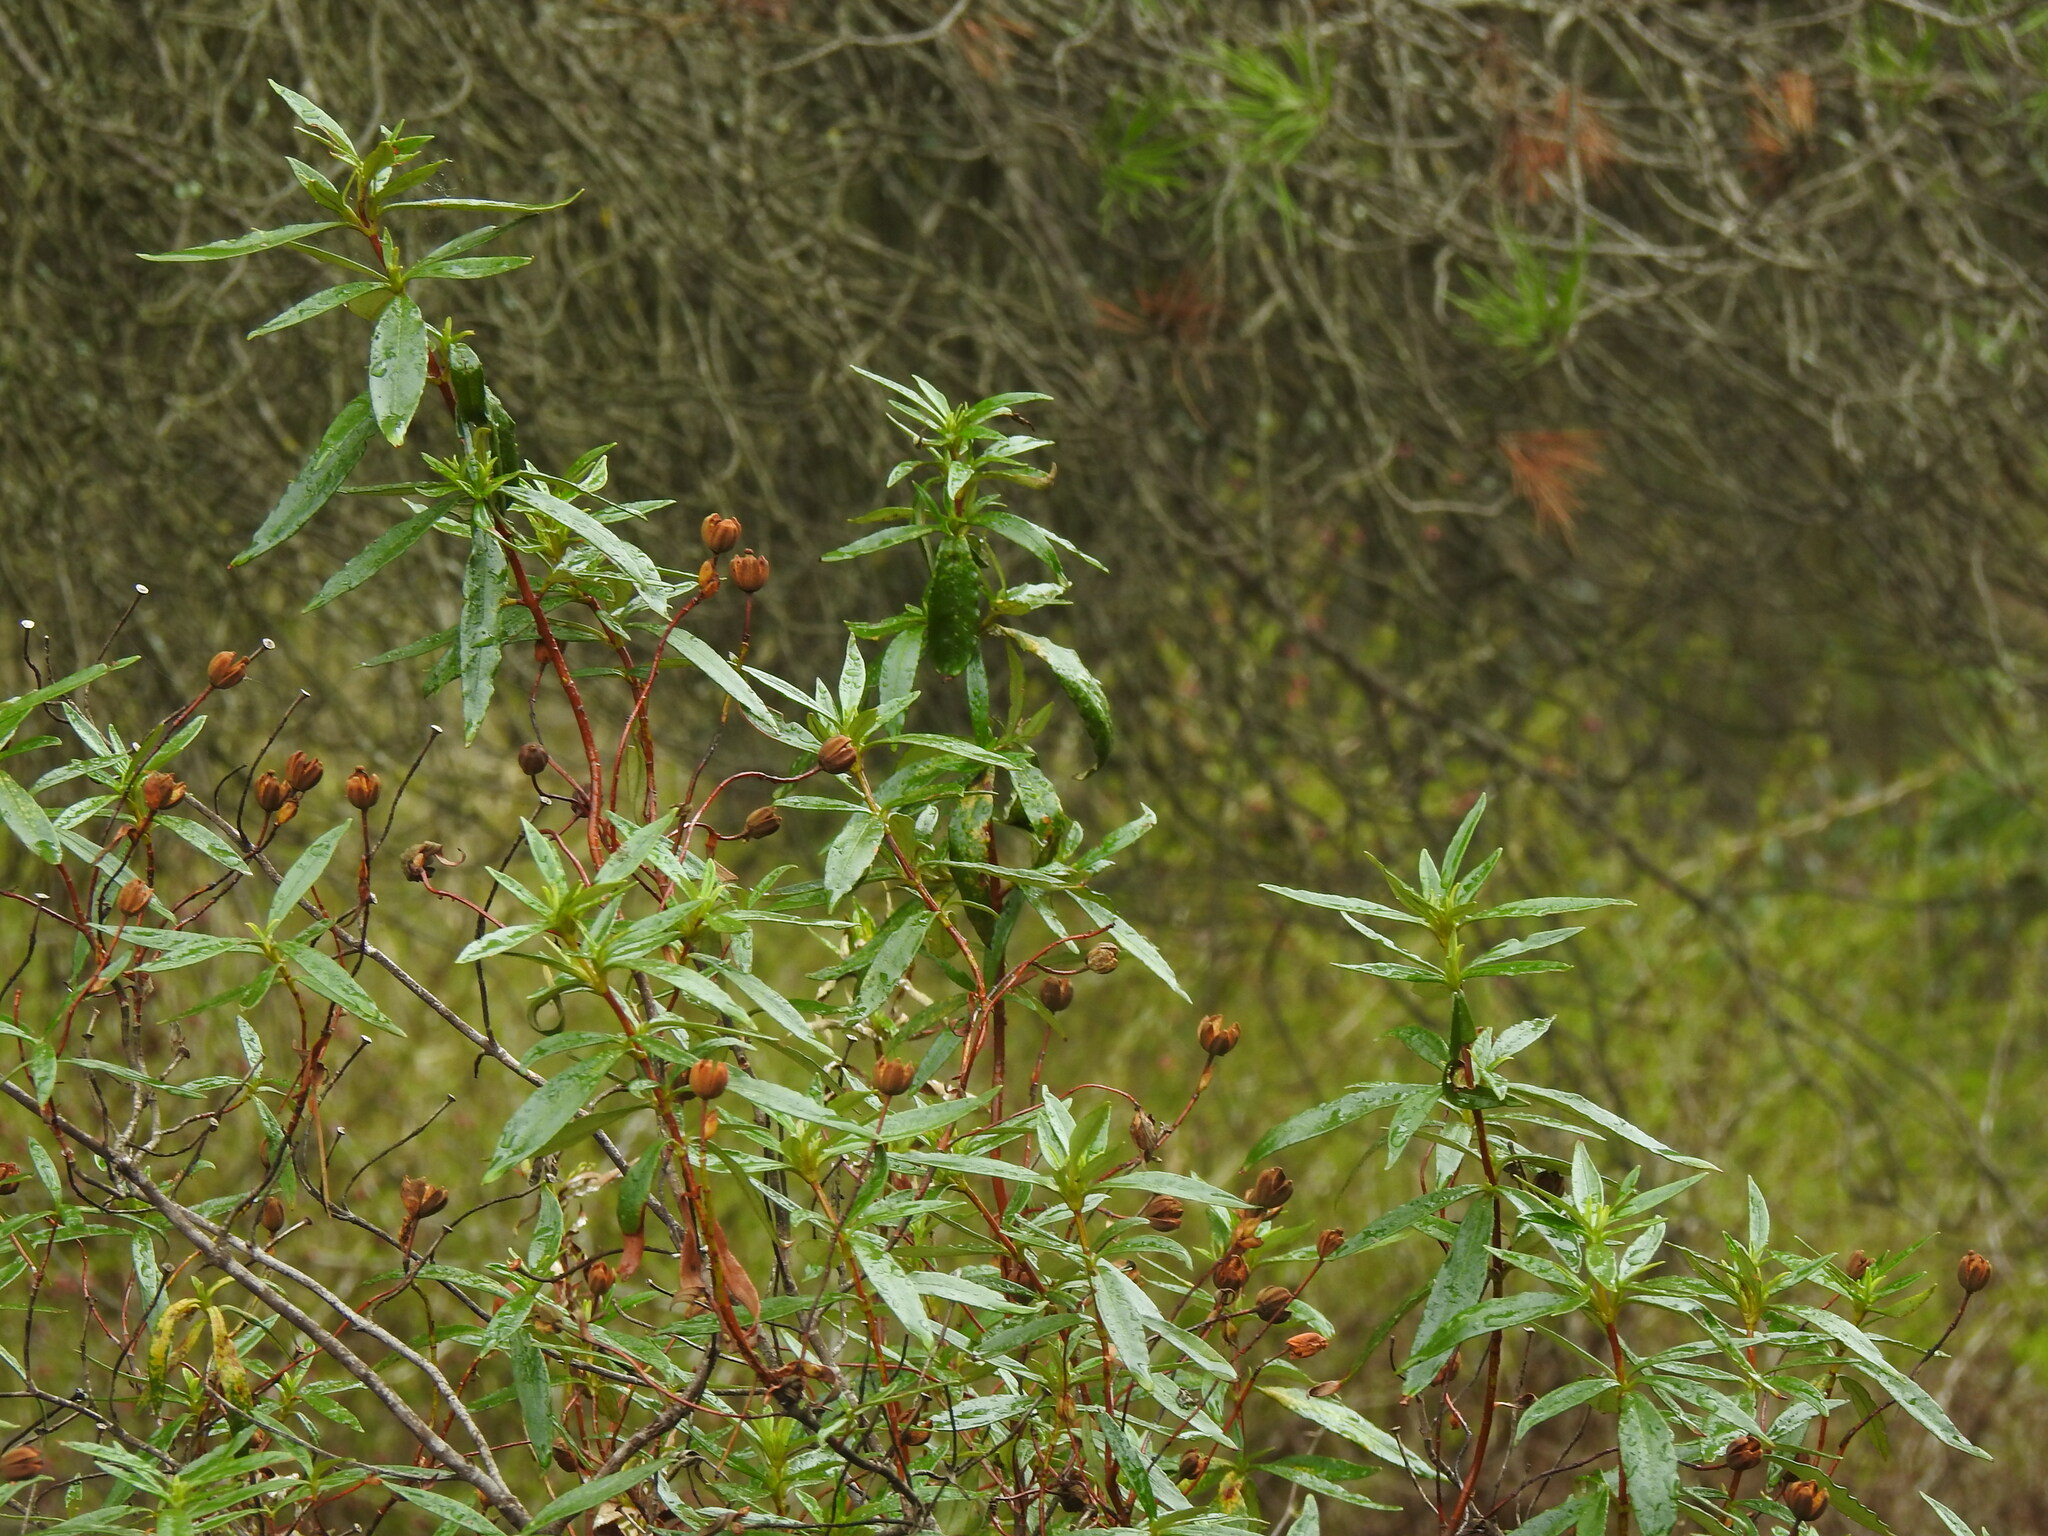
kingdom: Plantae
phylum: Tracheophyta
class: Magnoliopsida
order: Malvales
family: Cistaceae
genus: Cistus
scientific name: Cistus ladanifer
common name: Common gum cistus
